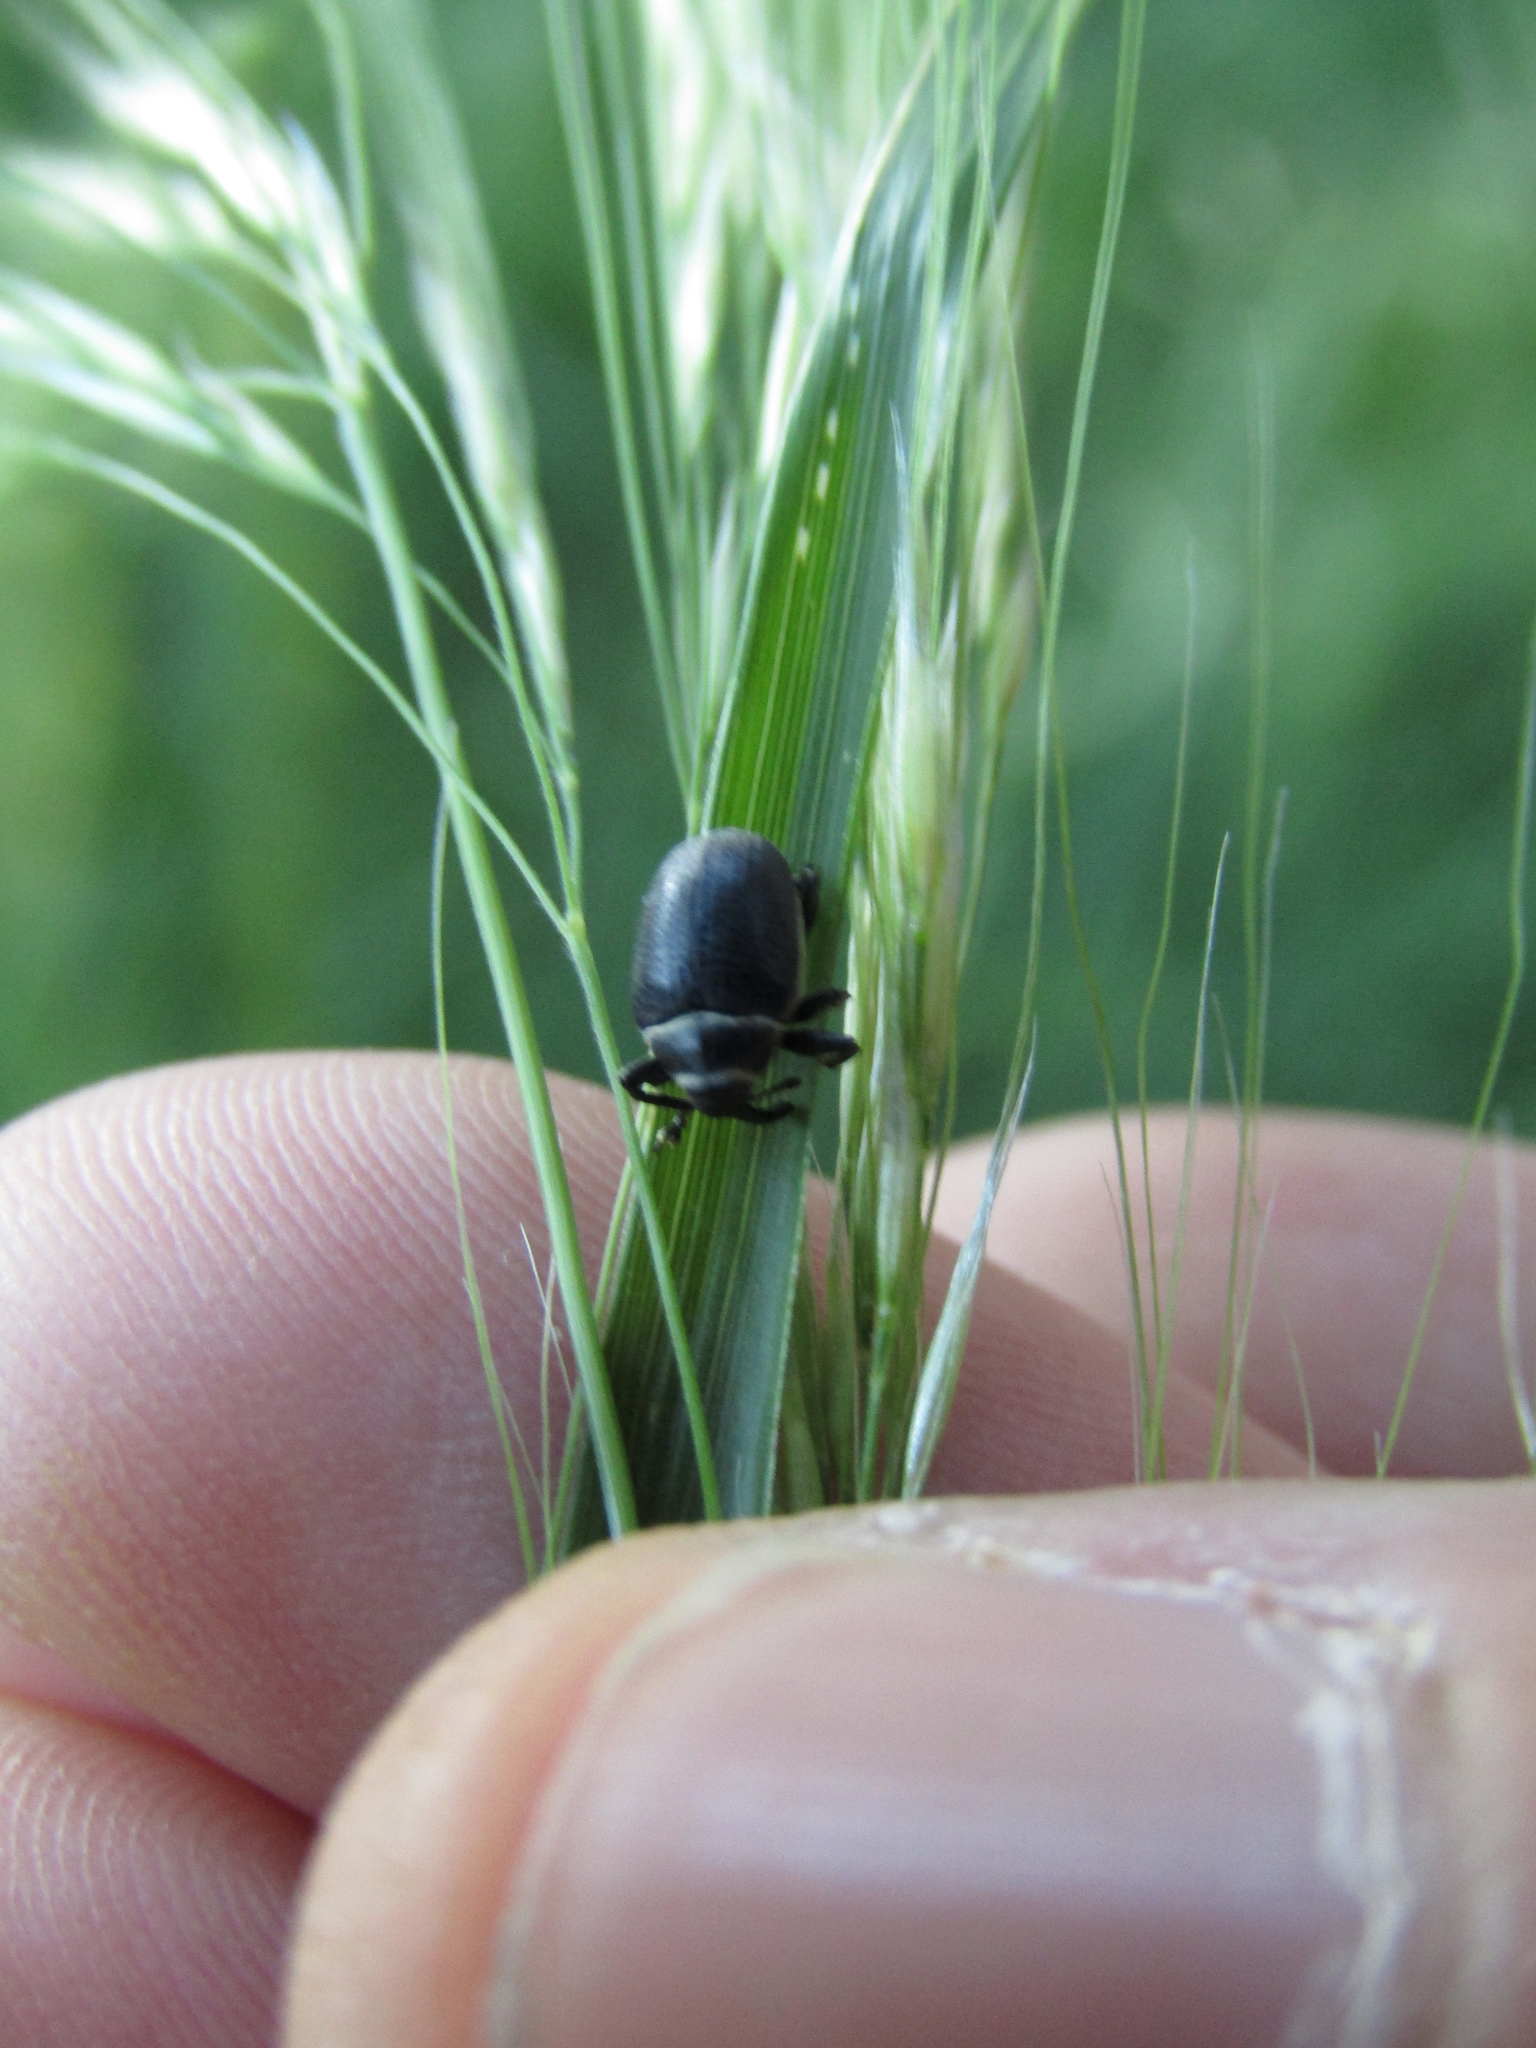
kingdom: Animalia
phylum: Arthropoda
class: Insecta
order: Coleoptera
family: Curculionidae
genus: Rhyssomatus
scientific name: Rhyssomatus marginatus
